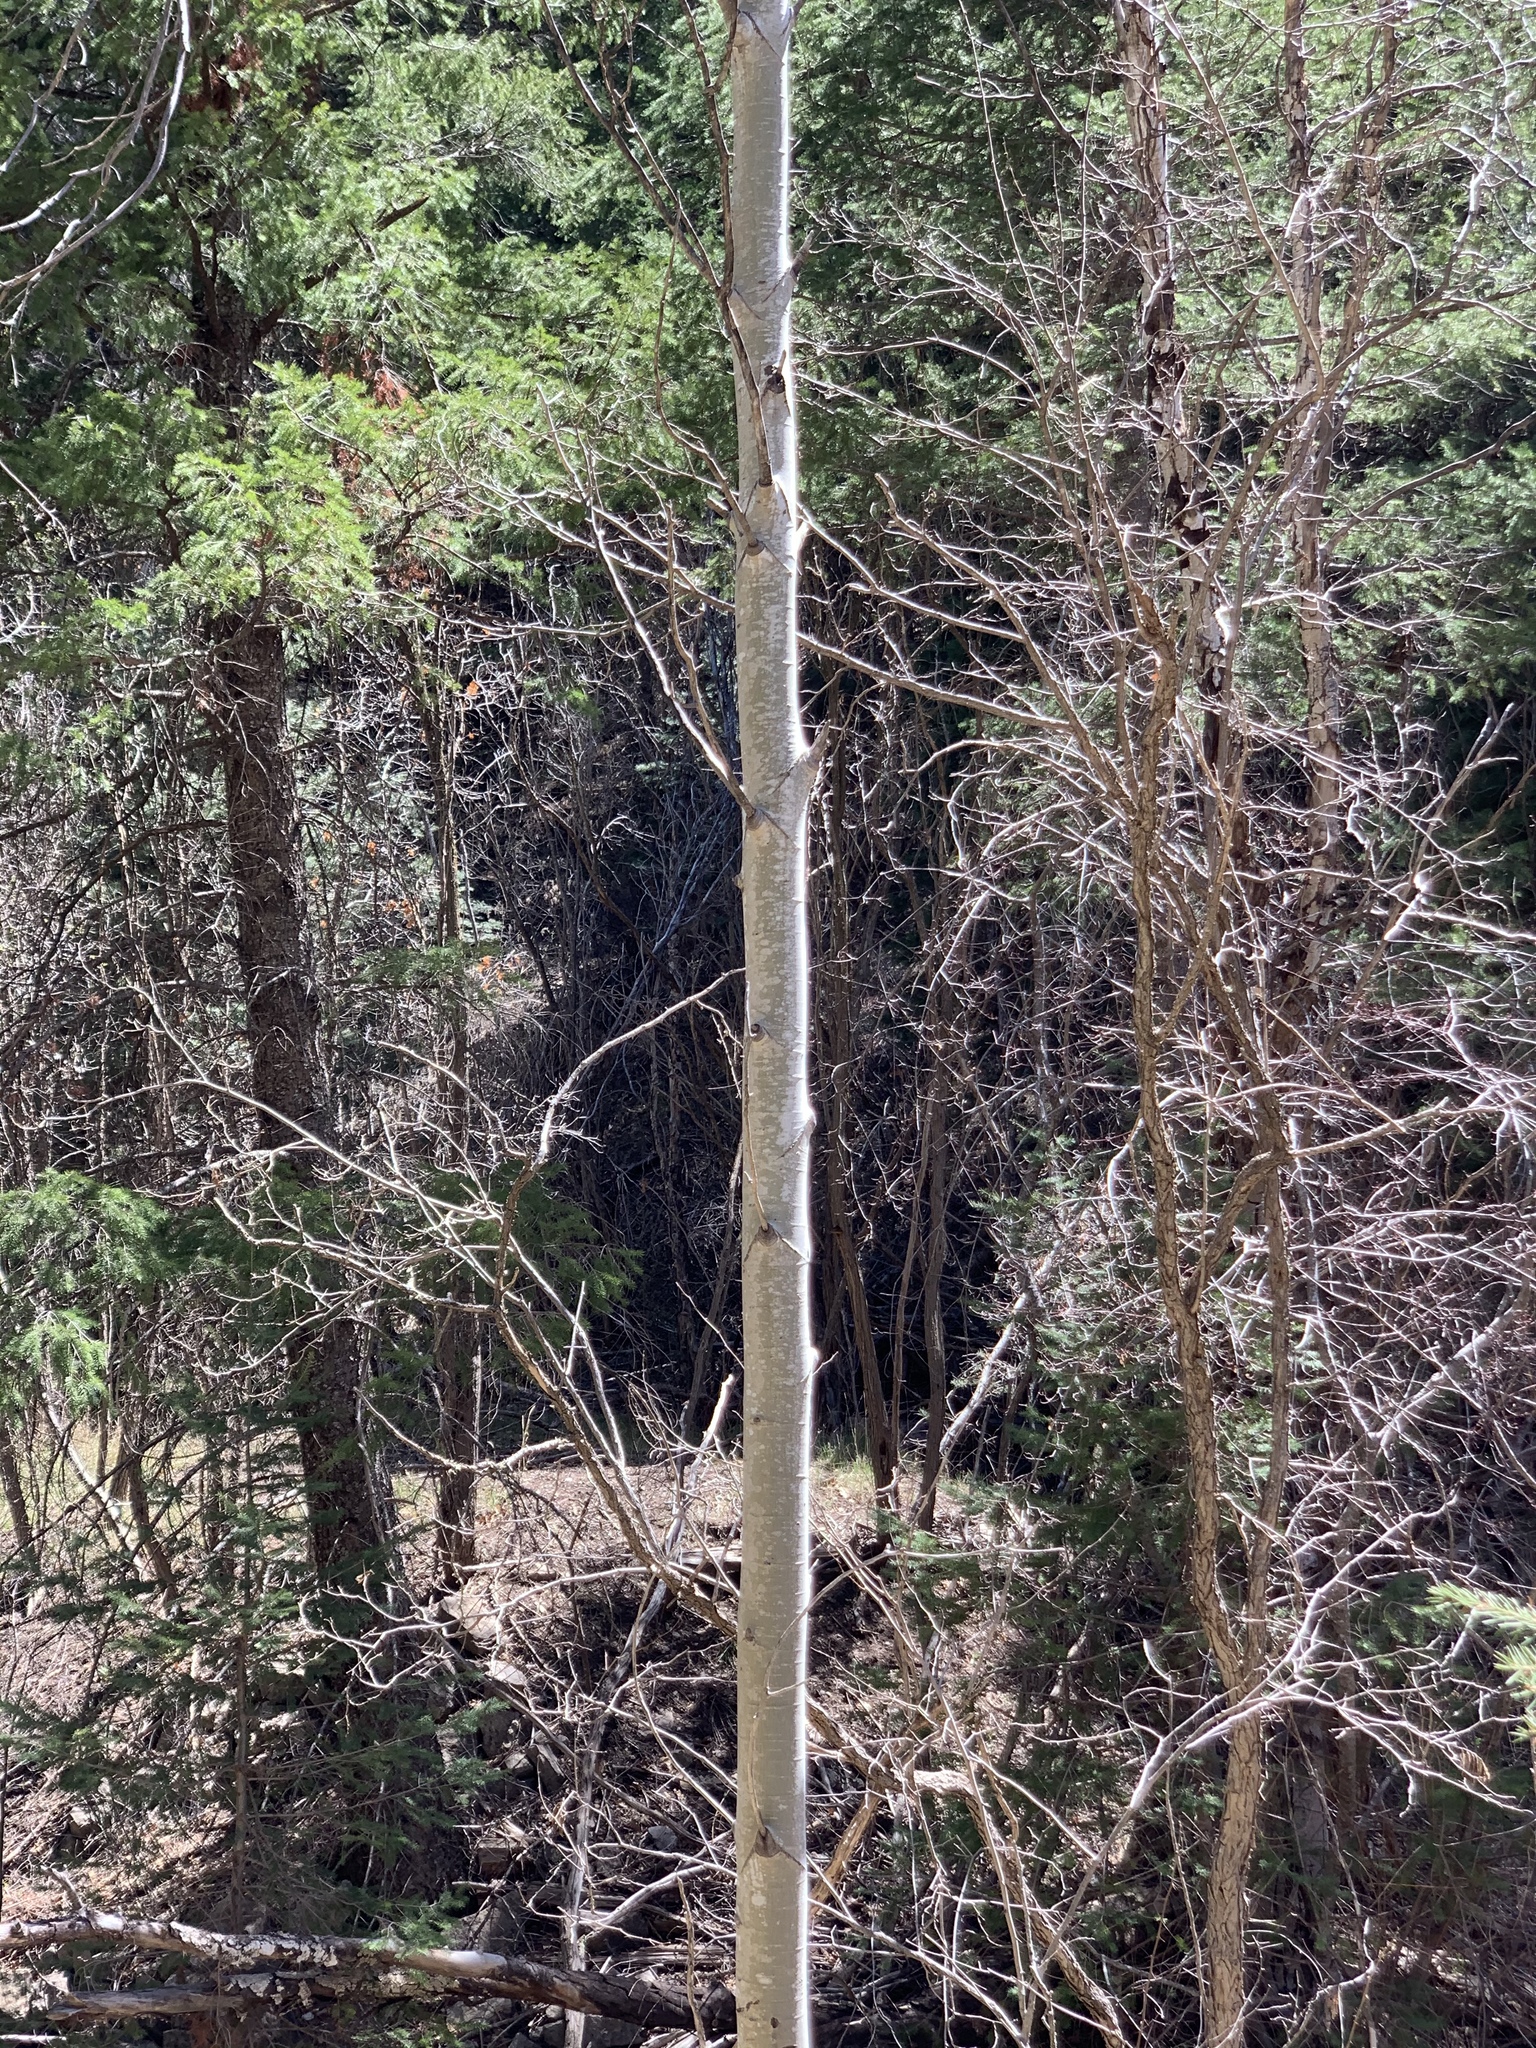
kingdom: Plantae
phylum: Tracheophyta
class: Magnoliopsida
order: Malpighiales
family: Salicaceae
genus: Populus
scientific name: Populus tremuloides
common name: Quaking aspen
